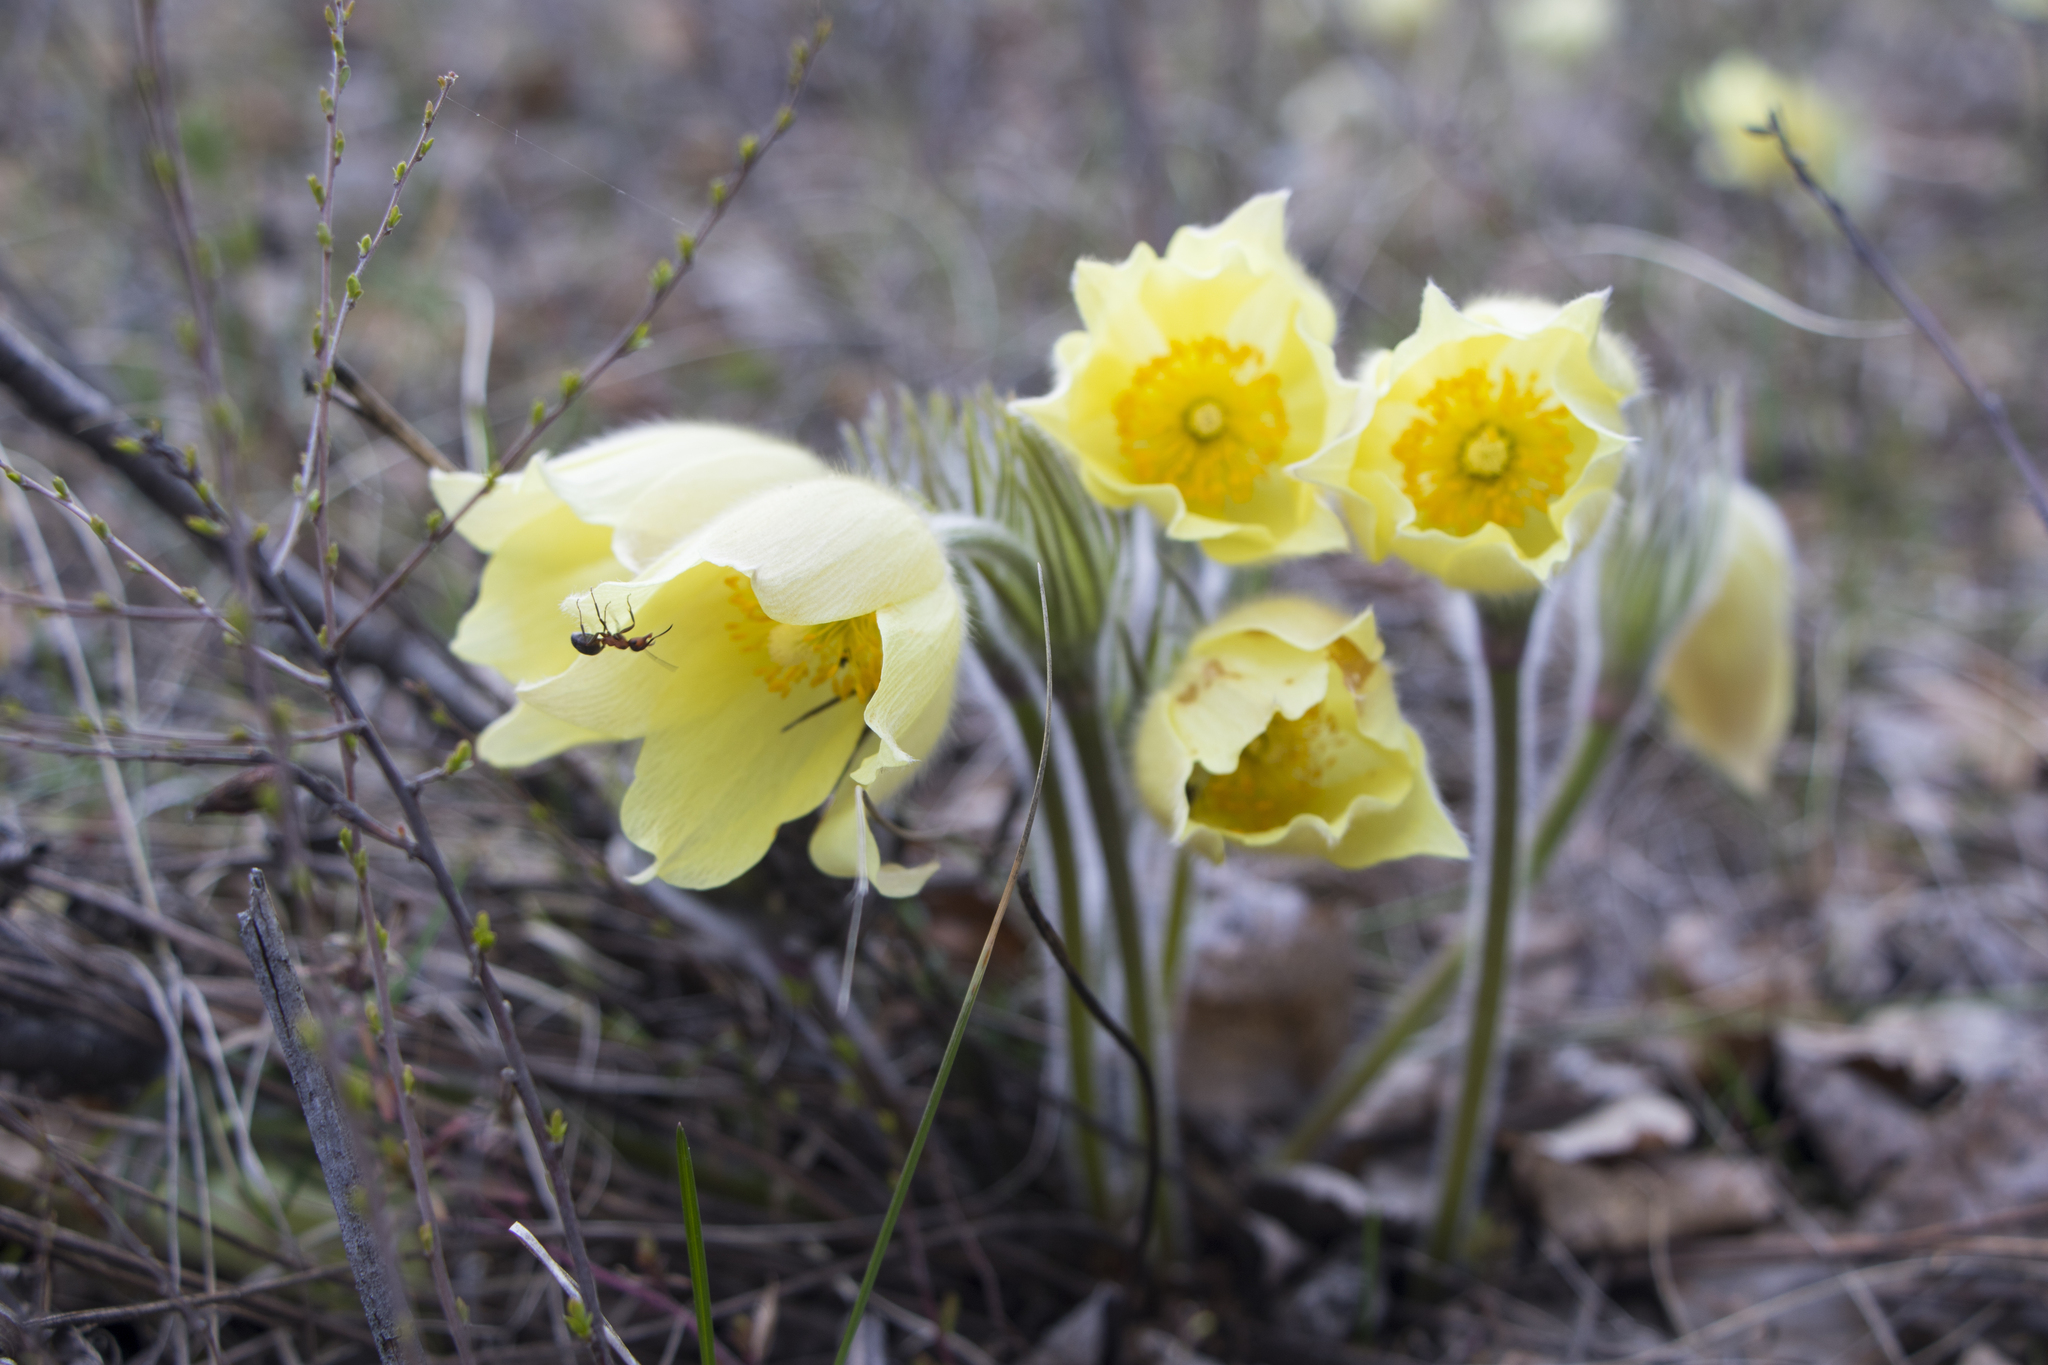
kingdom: Plantae
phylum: Tracheophyta
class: Magnoliopsida
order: Ranunculales
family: Ranunculaceae
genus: Pulsatilla
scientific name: Pulsatilla patens
